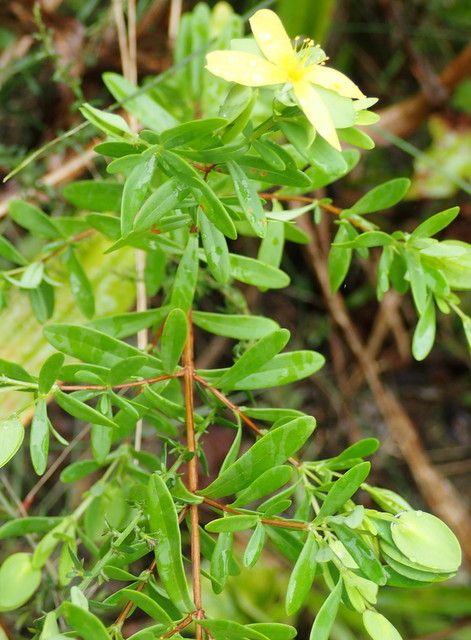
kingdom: Plantae
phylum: Tracheophyta
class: Magnoliopsida
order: Malpighiales
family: Hypericaceae
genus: Hypericum
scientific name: Hypericum hypericoides
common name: St. andrew's cross
